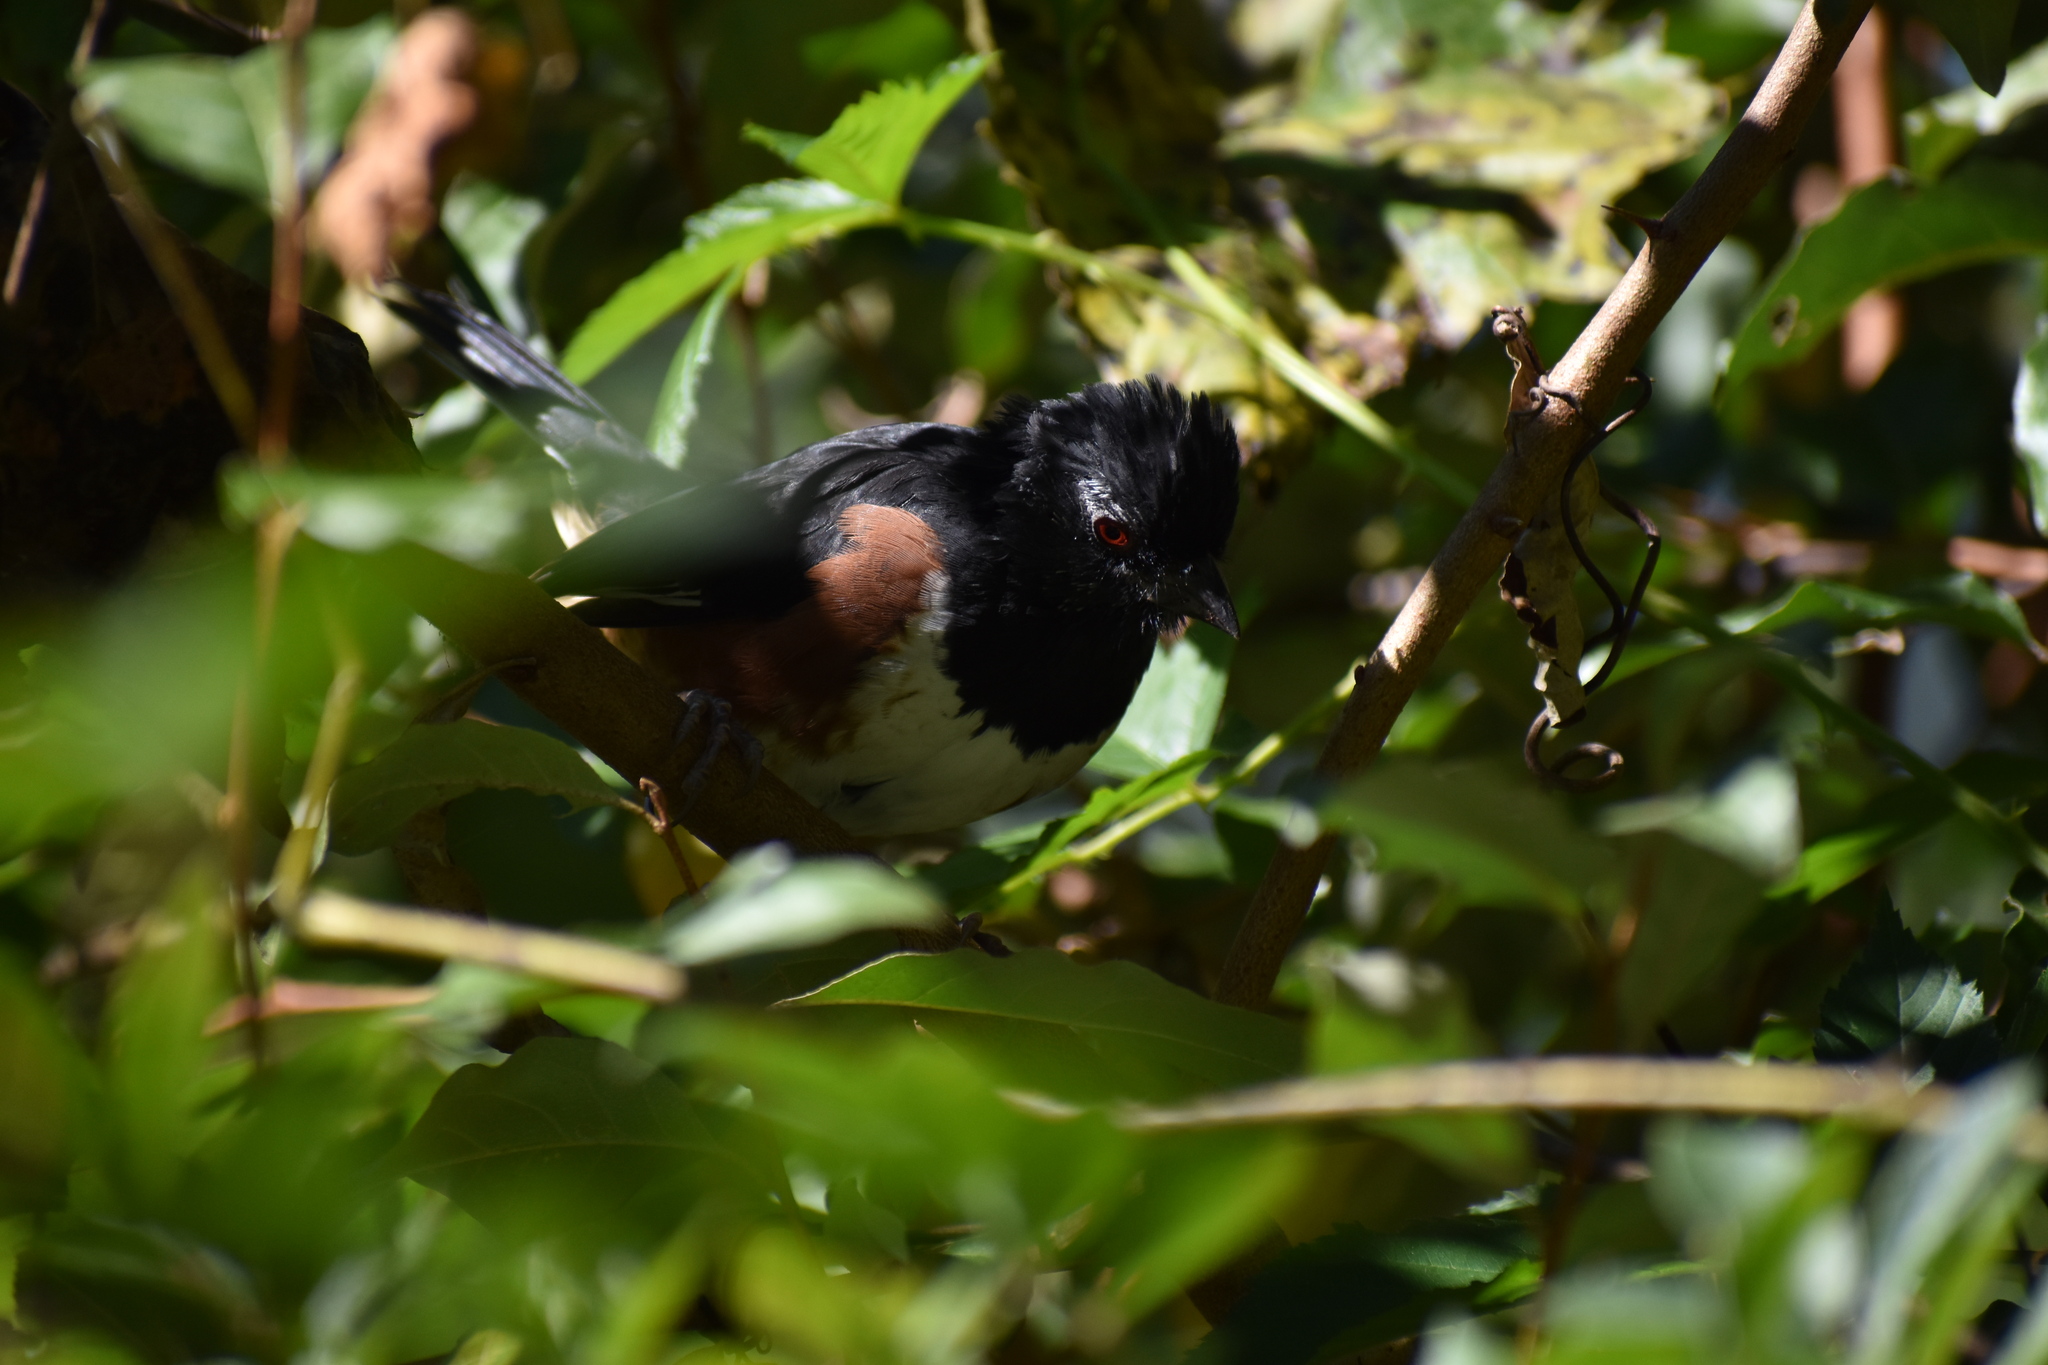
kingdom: Animalia
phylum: Chordata
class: Aves
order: Passeriformes
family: Passerellidae
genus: Pipilo
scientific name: Pipilo erythrophthalmus
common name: Eastern towhee
